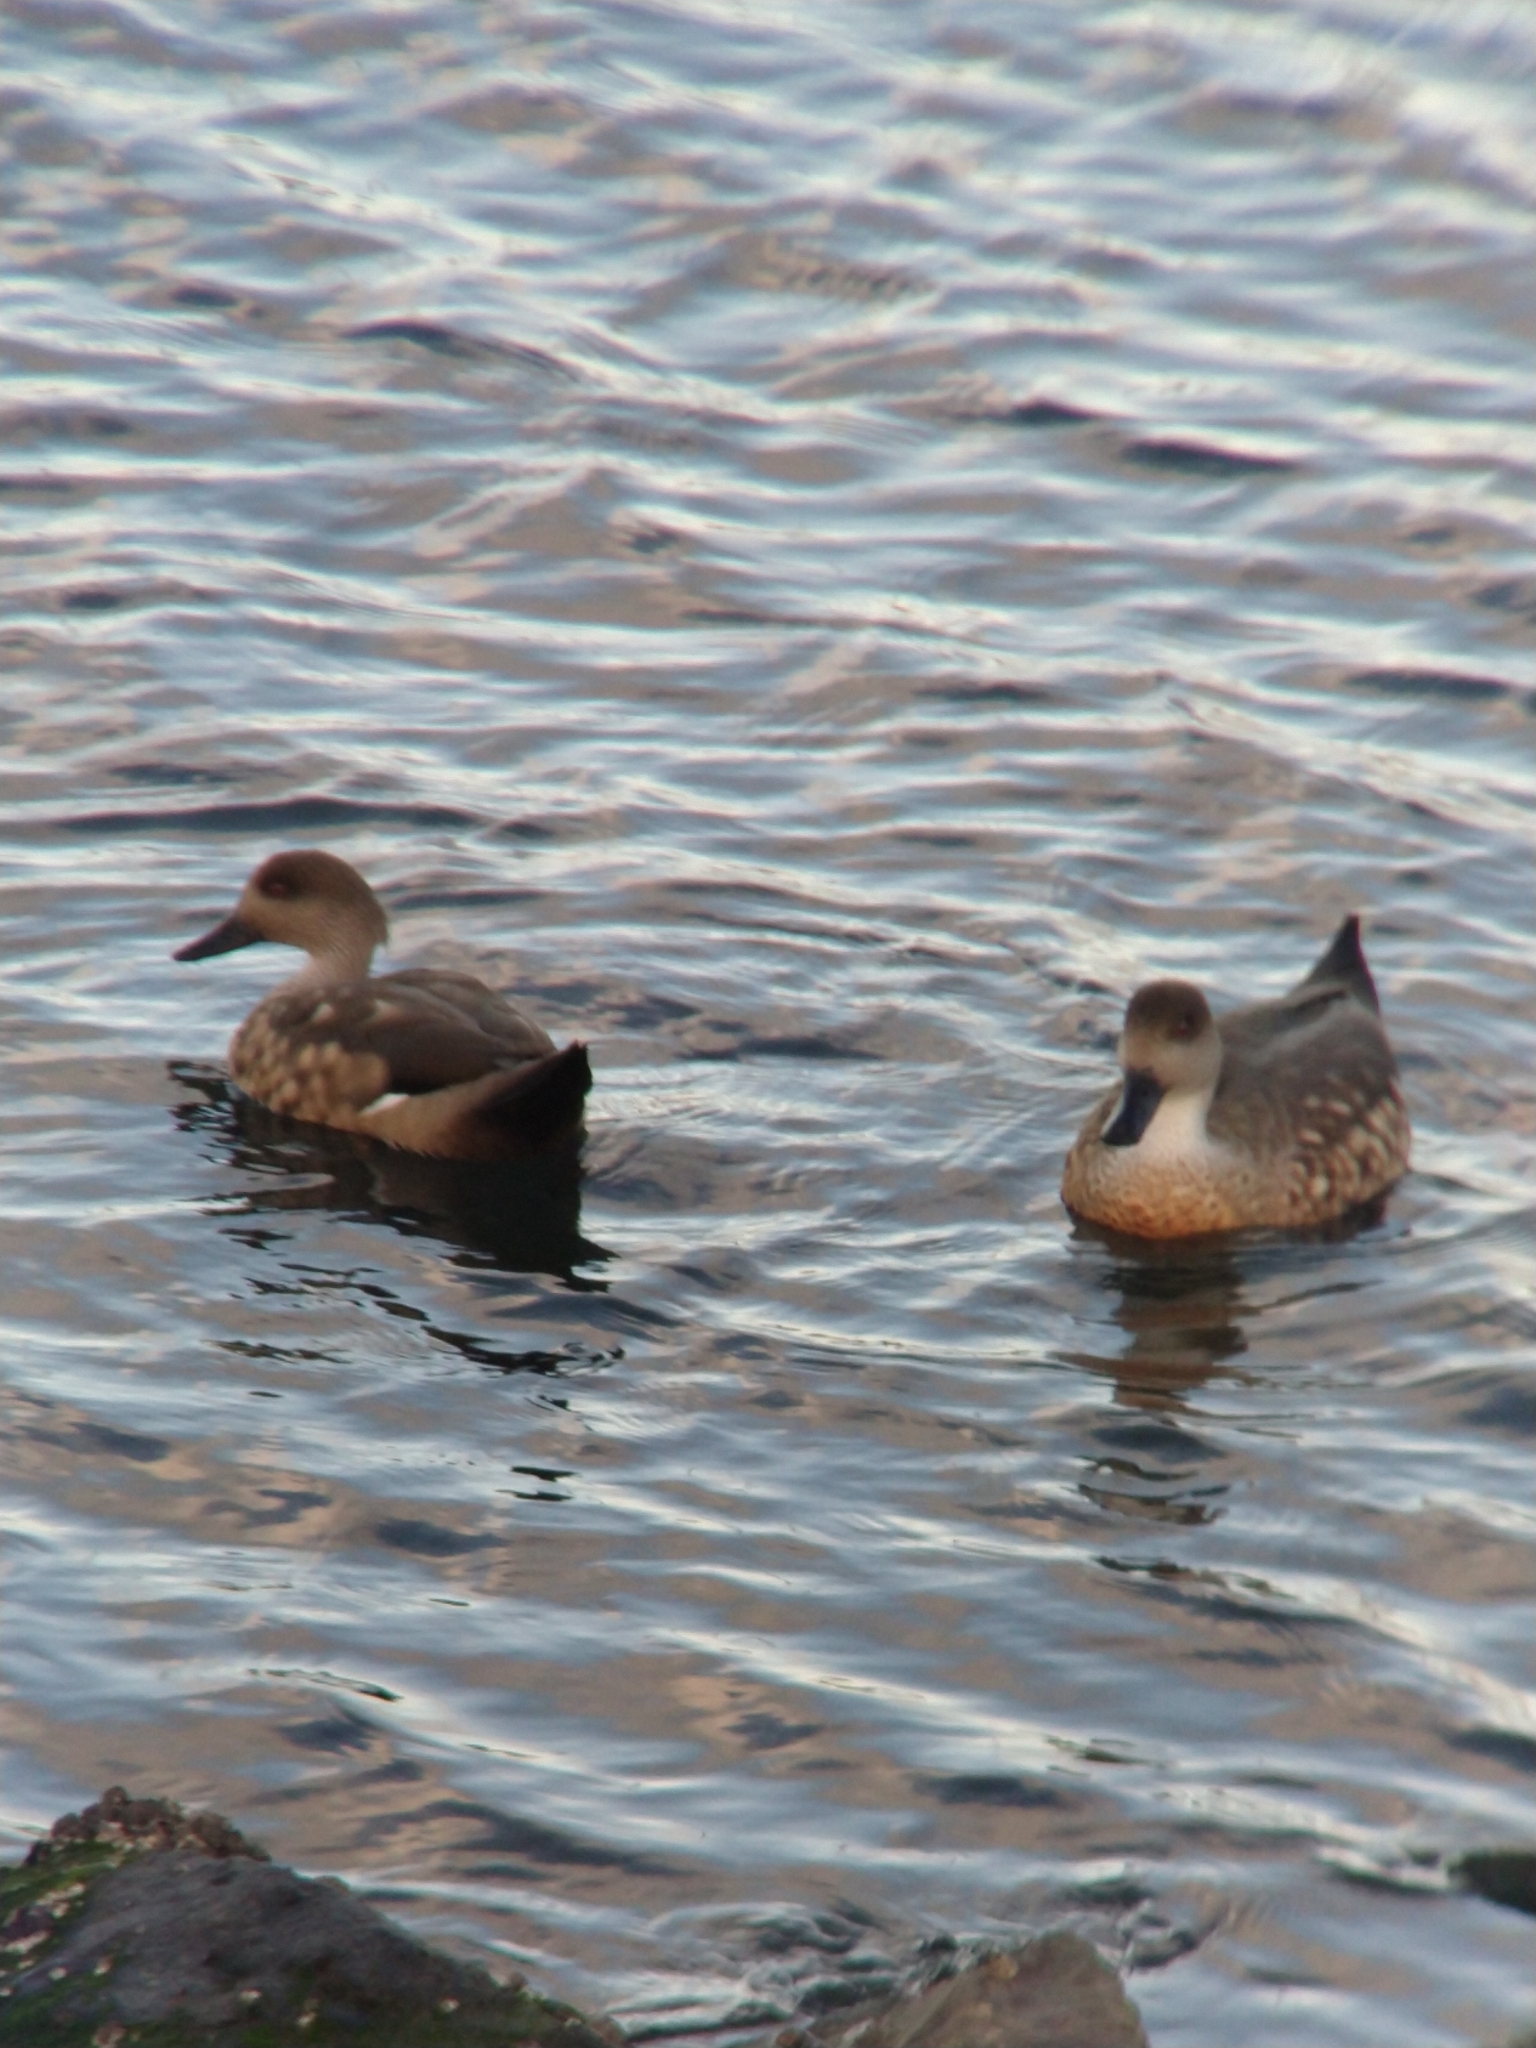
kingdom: Animalia
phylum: Chordata
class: Aves
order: Anseriformes
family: Anatidae
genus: Lophonetta
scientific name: Lophonetta specularioides
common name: Crested duck
